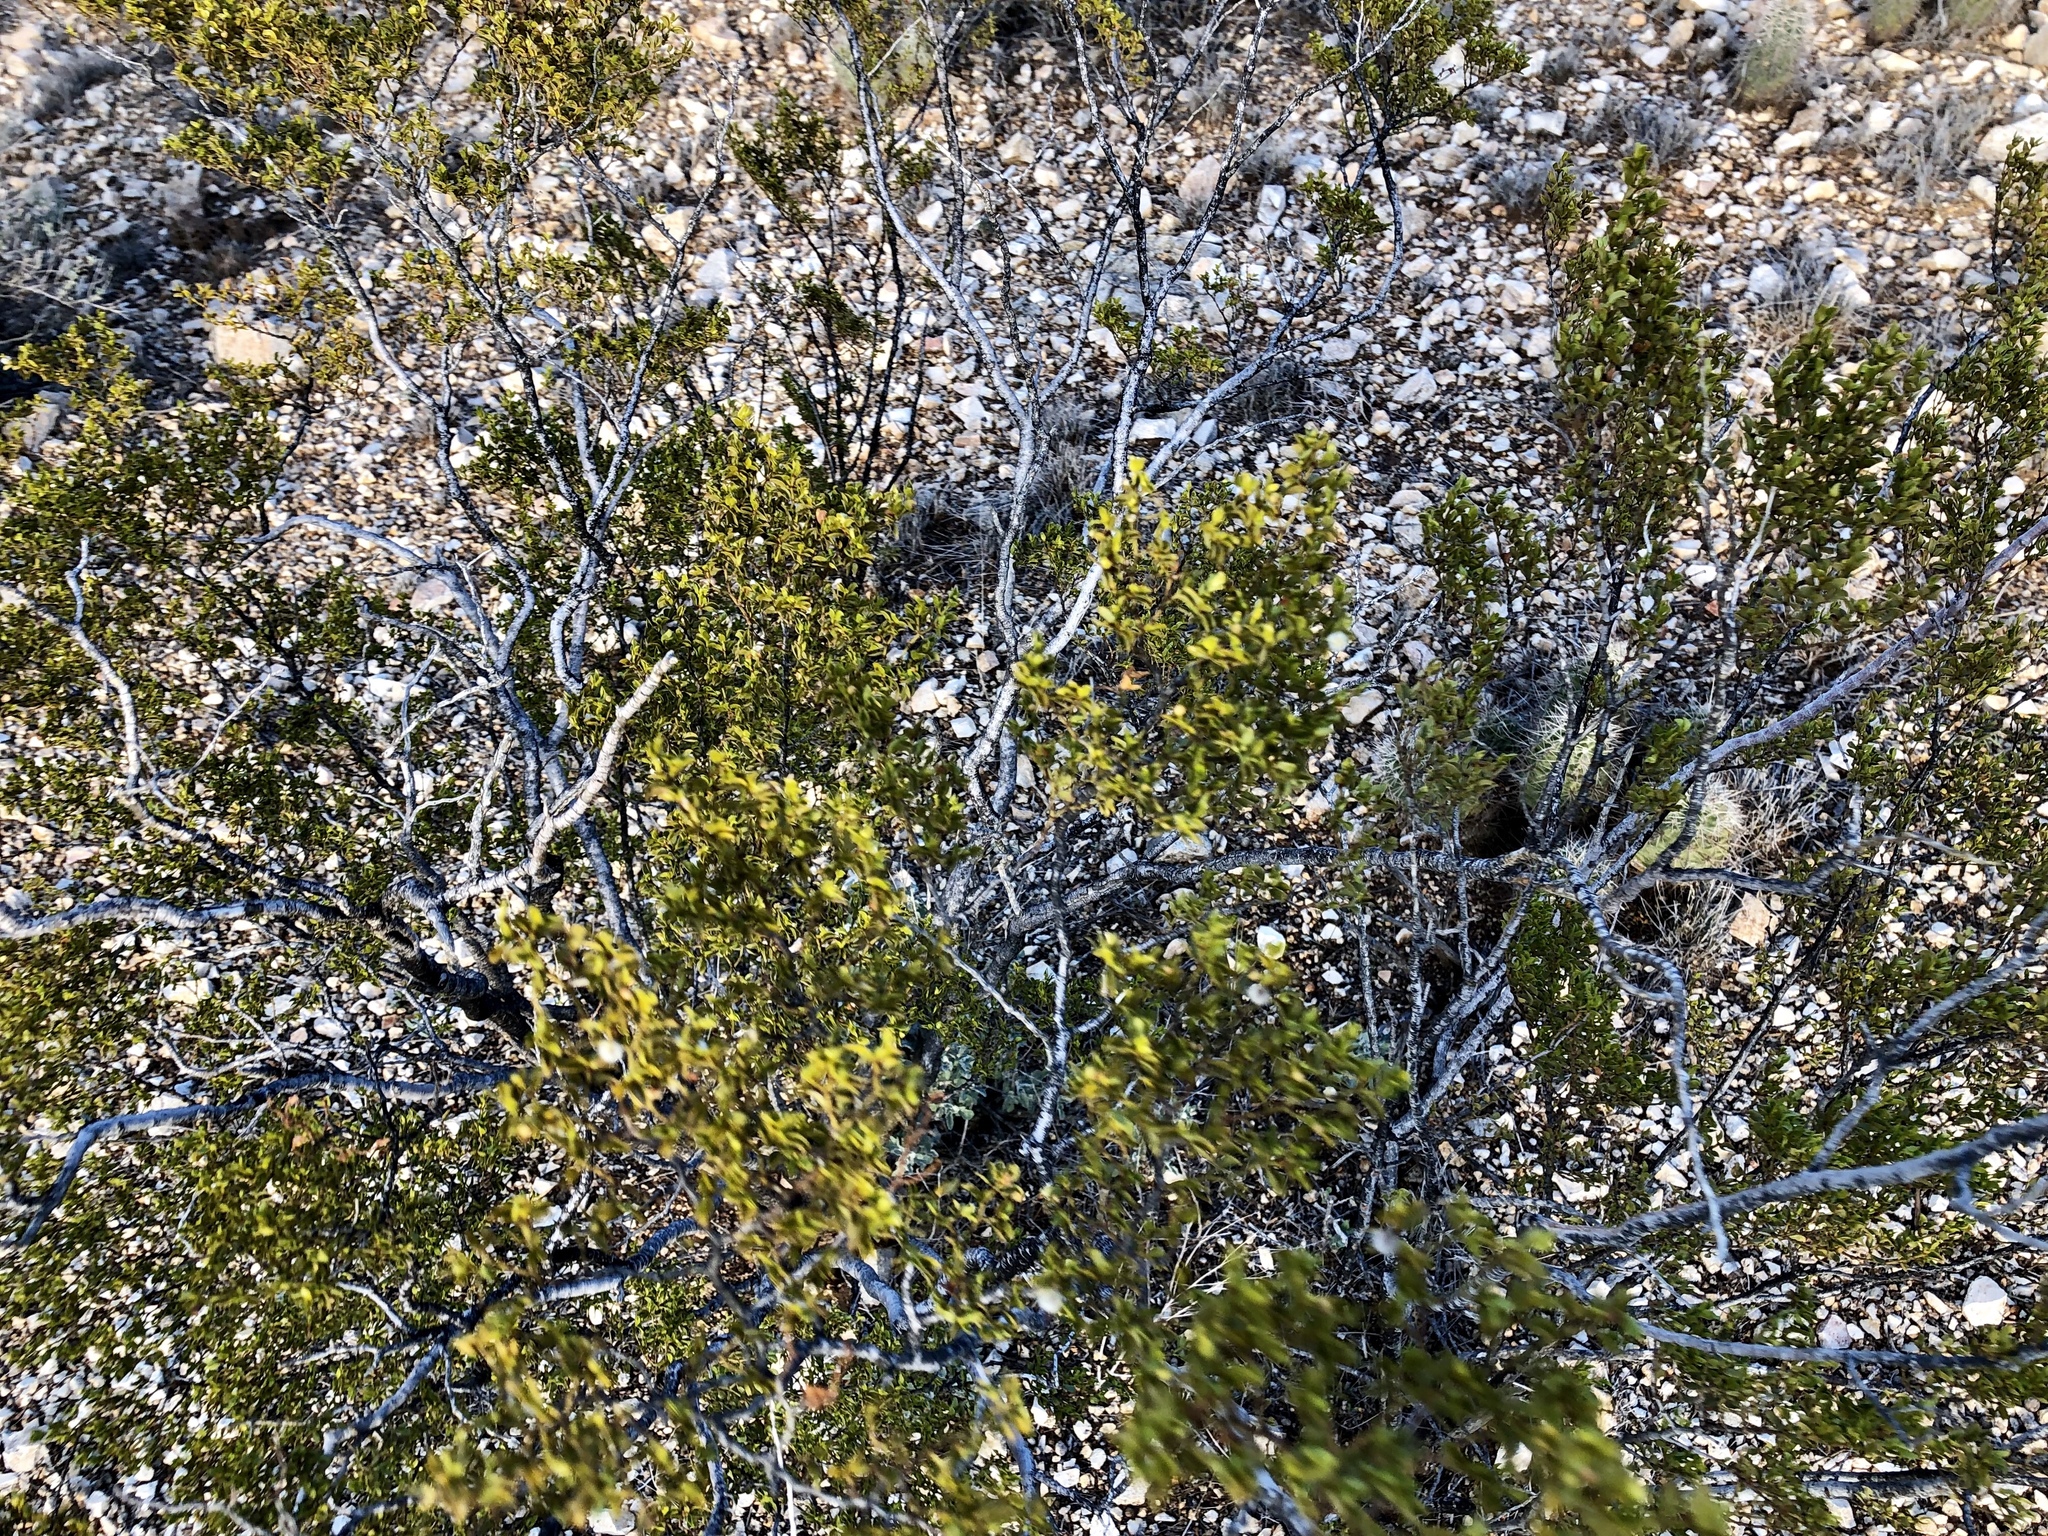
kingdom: Plantae
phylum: Tracheophyta
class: Magnoliopsida
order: Zygophyllales
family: Zygophyllaceae
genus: Larrea
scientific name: Larrea tridentata
